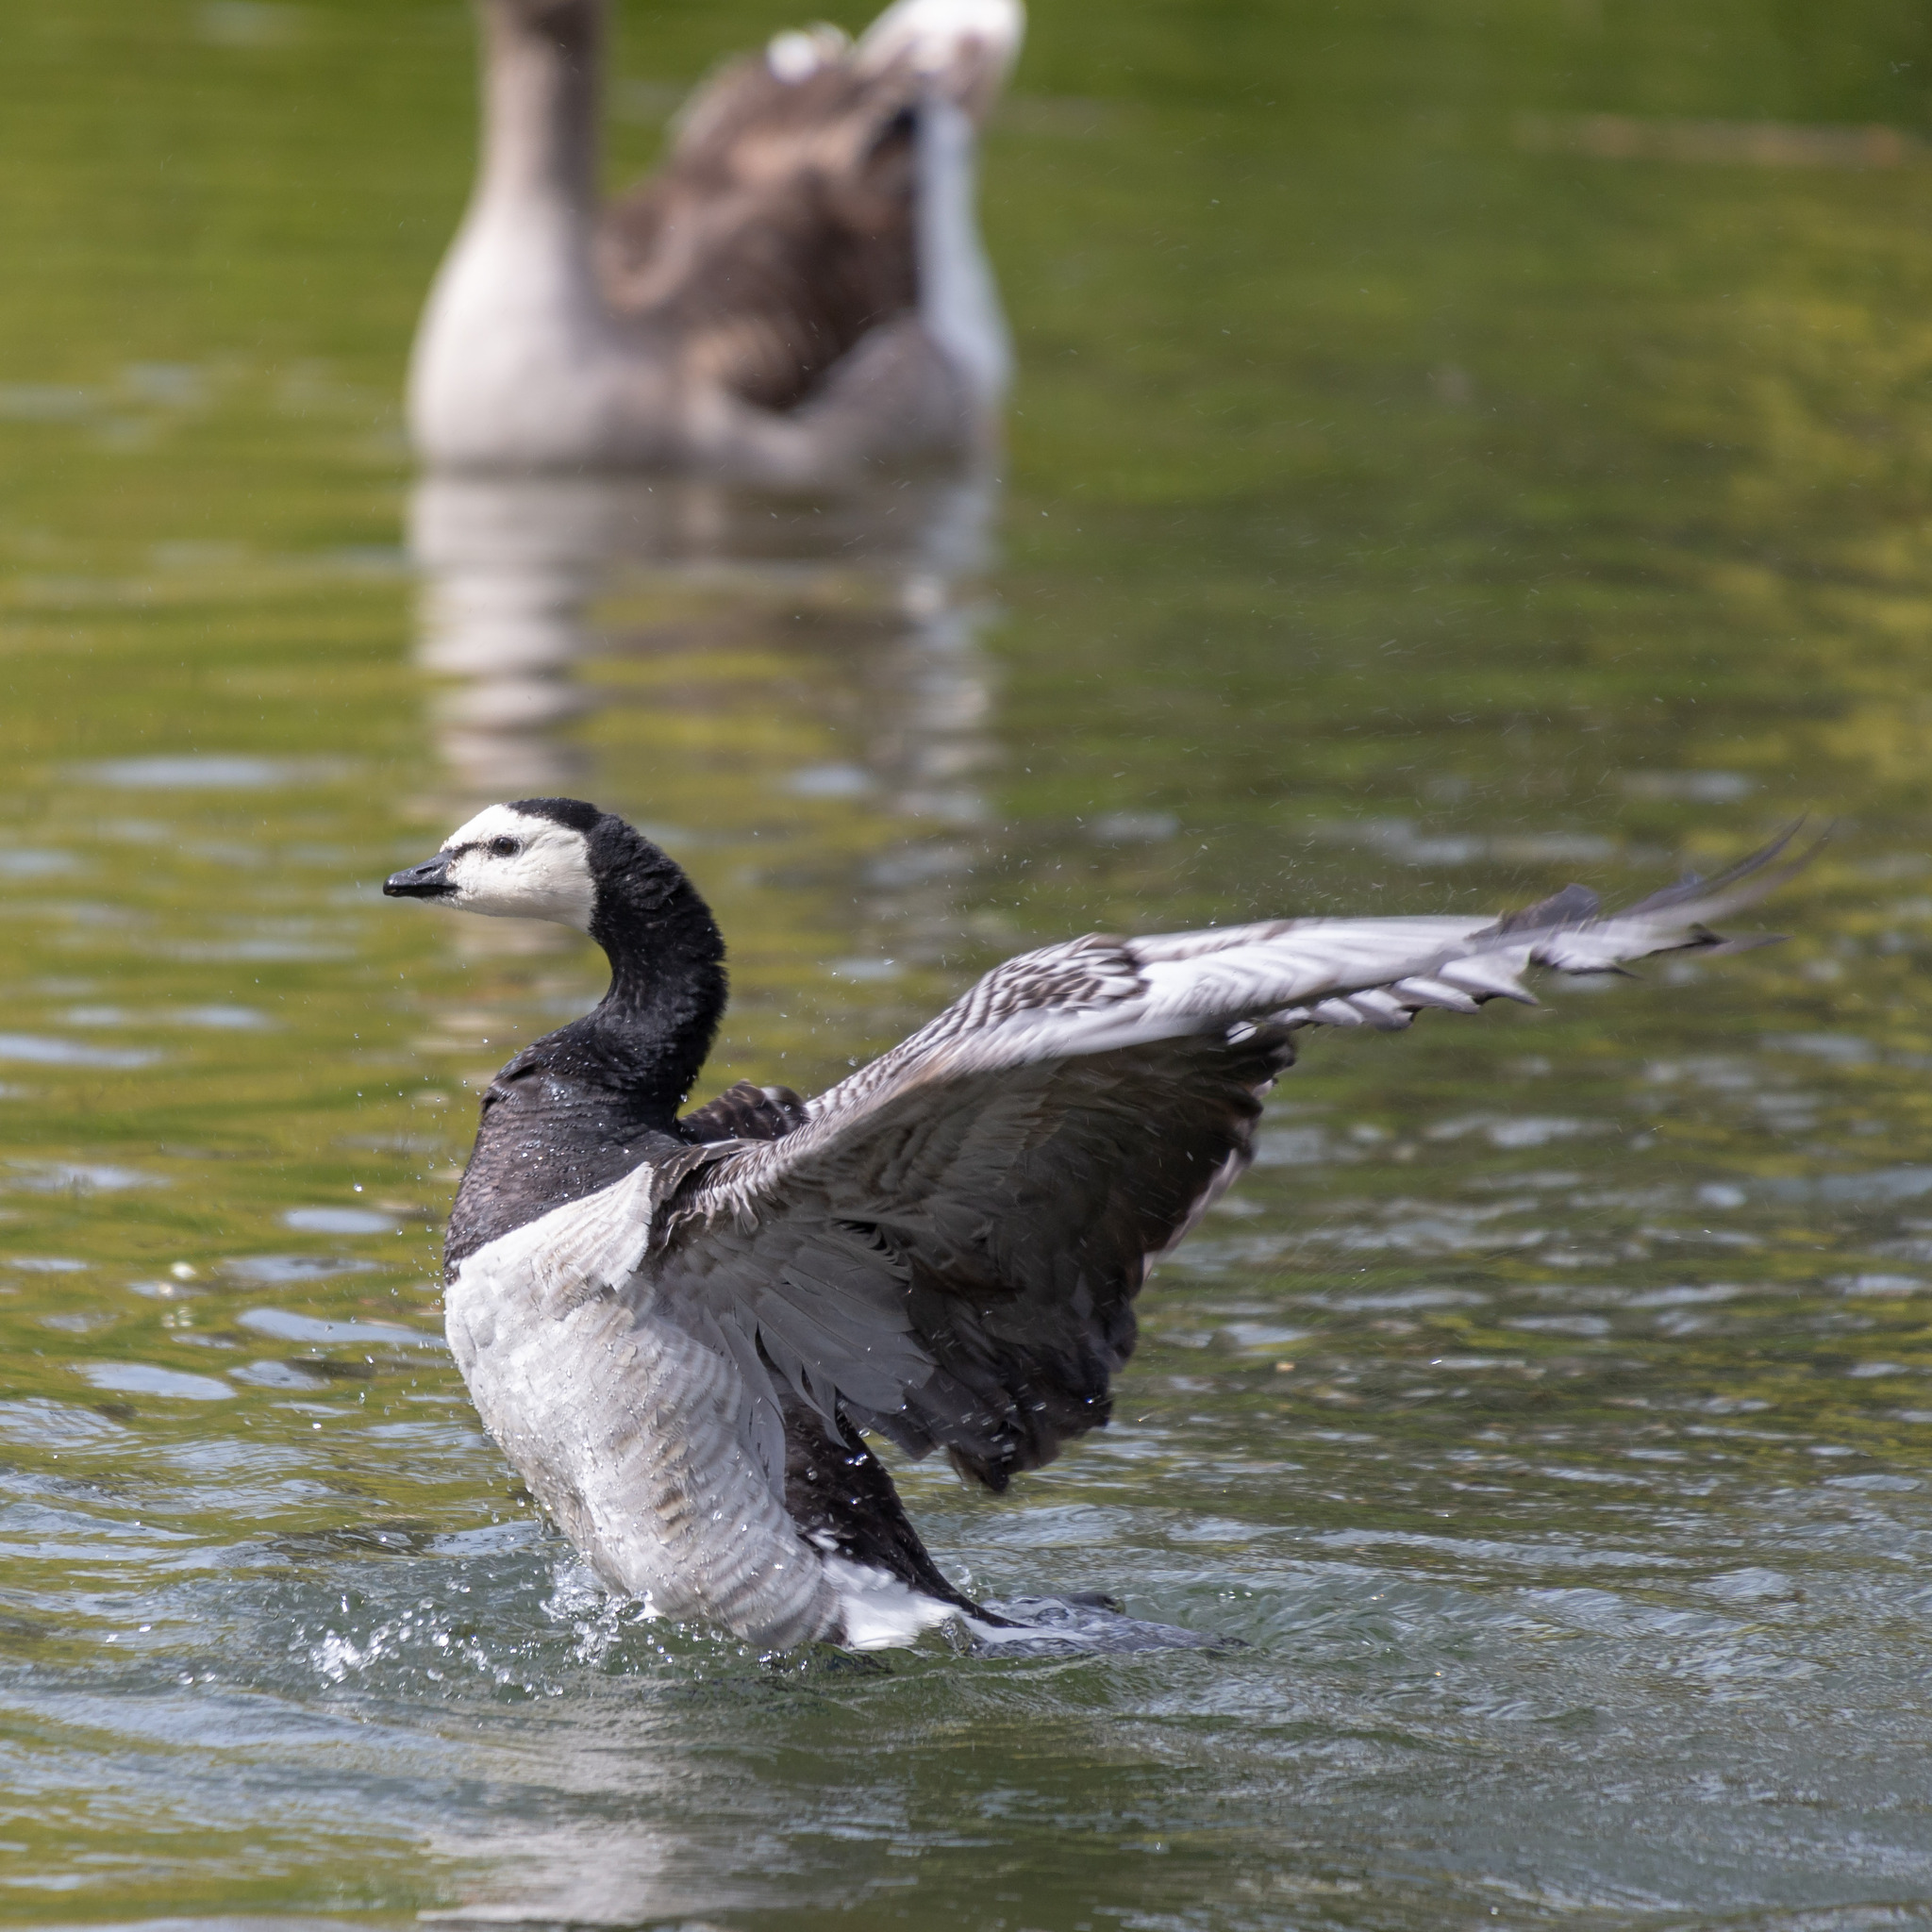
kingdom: Animalia
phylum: Chordata
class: Aves
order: Anseriformes
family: Anatidae
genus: Branta
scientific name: Branta leucopsis
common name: Barnacle goose
